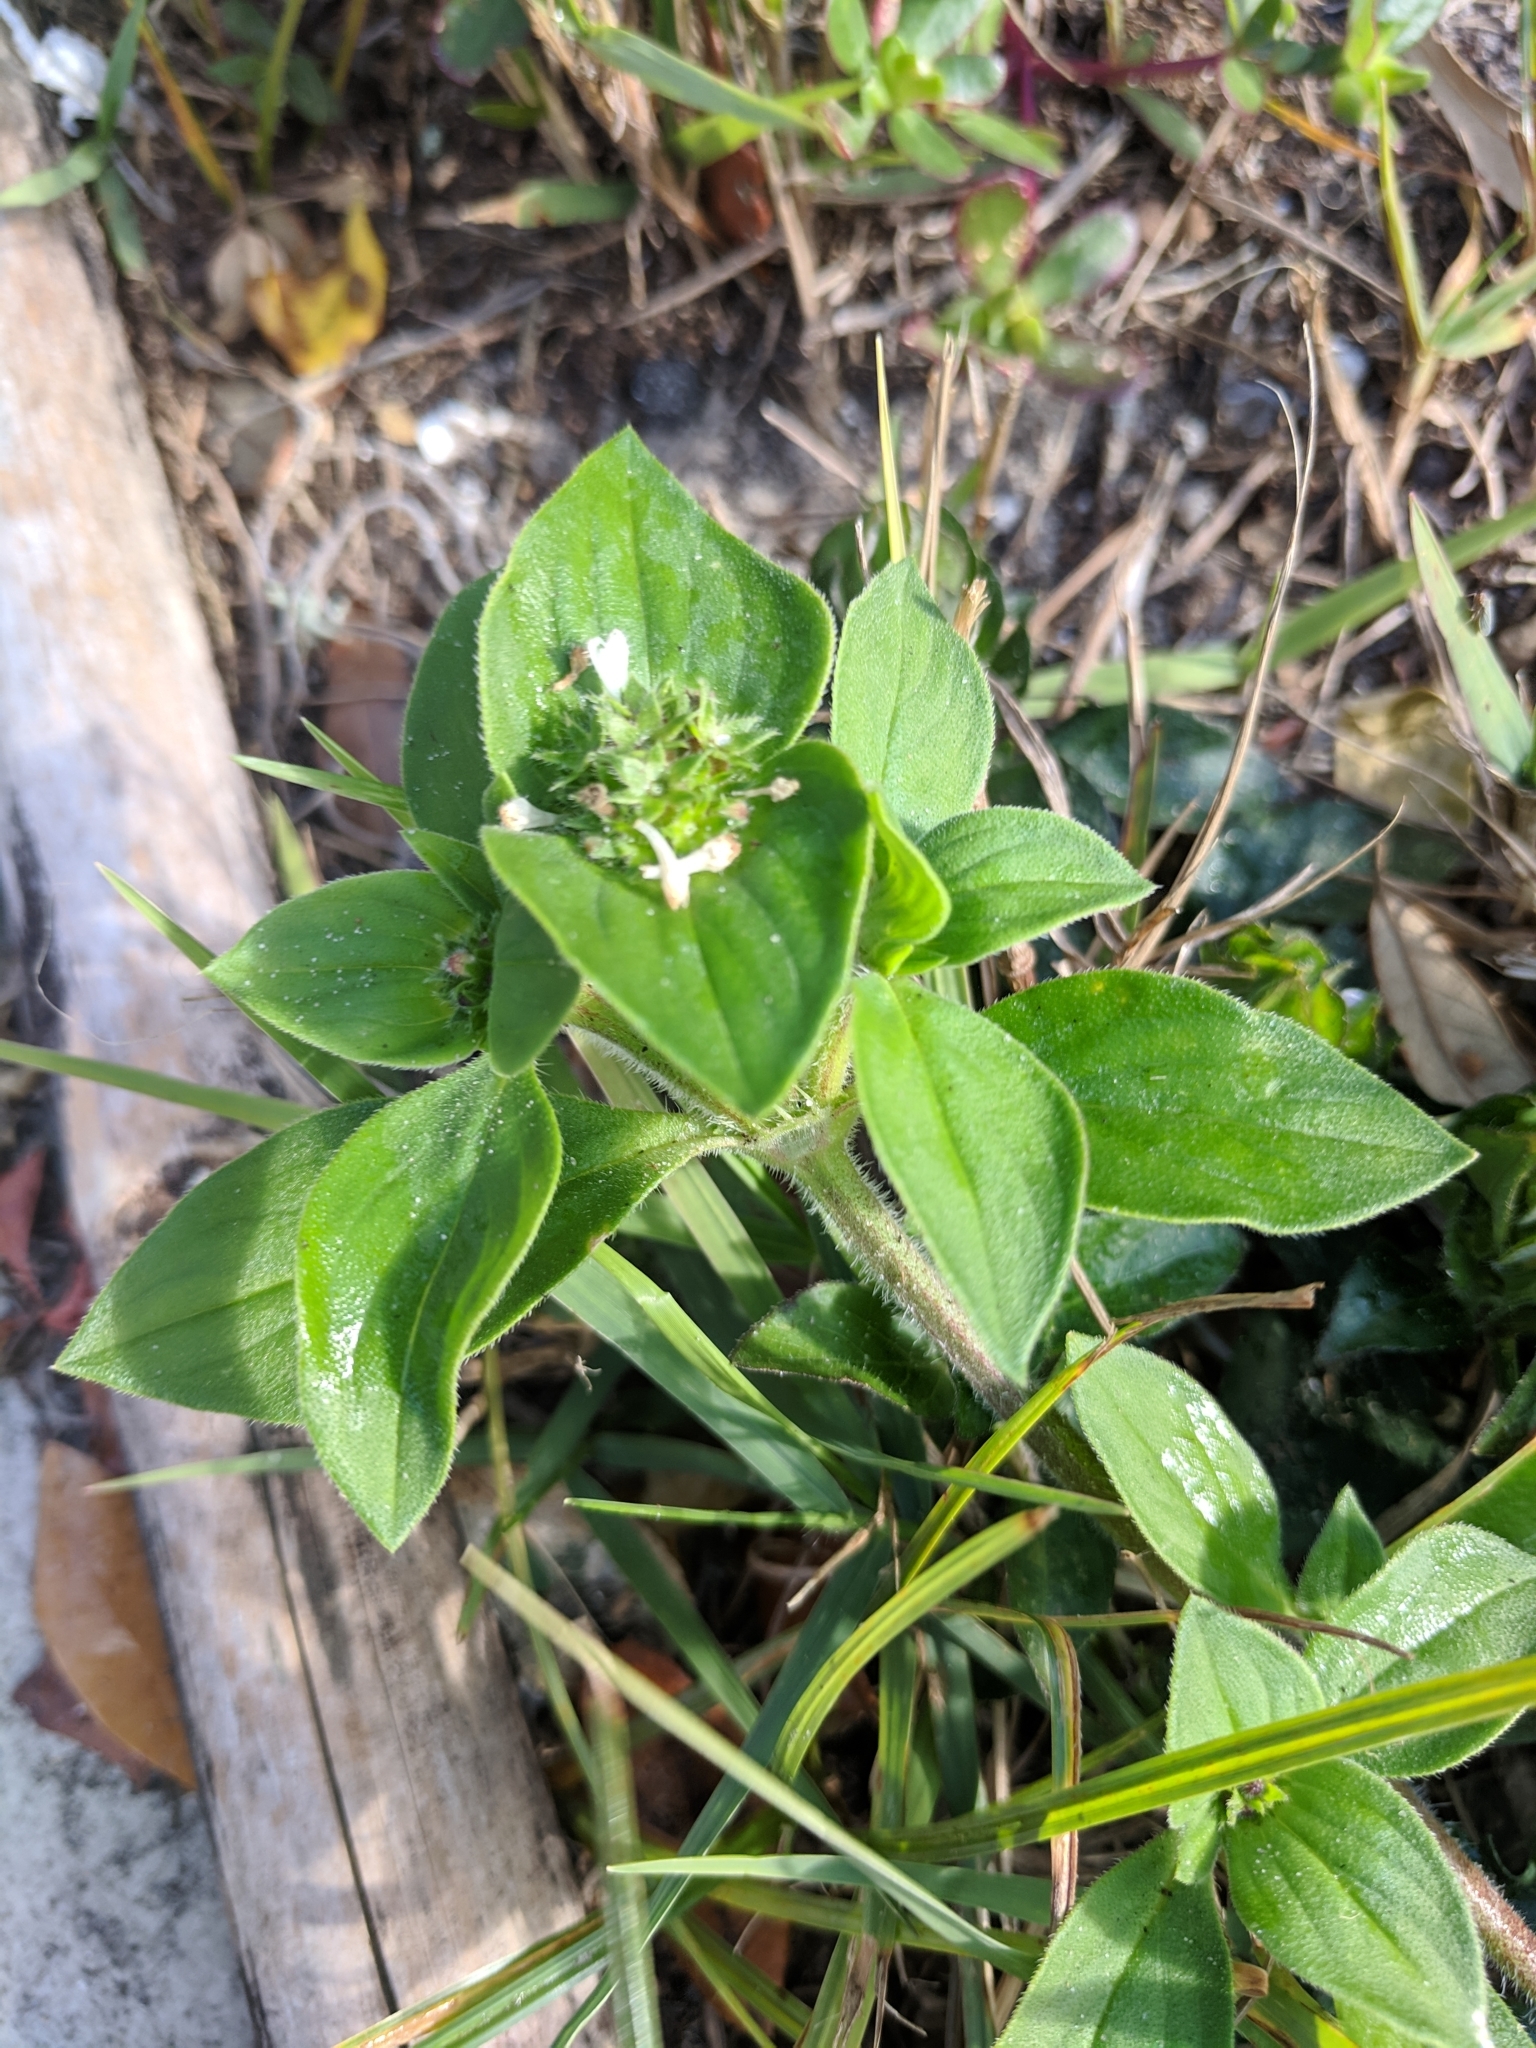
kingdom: Plantae
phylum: Tracheophyta
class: Magnoliopsida
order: Gentianales
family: Rubiaceae
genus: Richardia
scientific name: Richardia brasiliensis
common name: Tropical mexican clover
